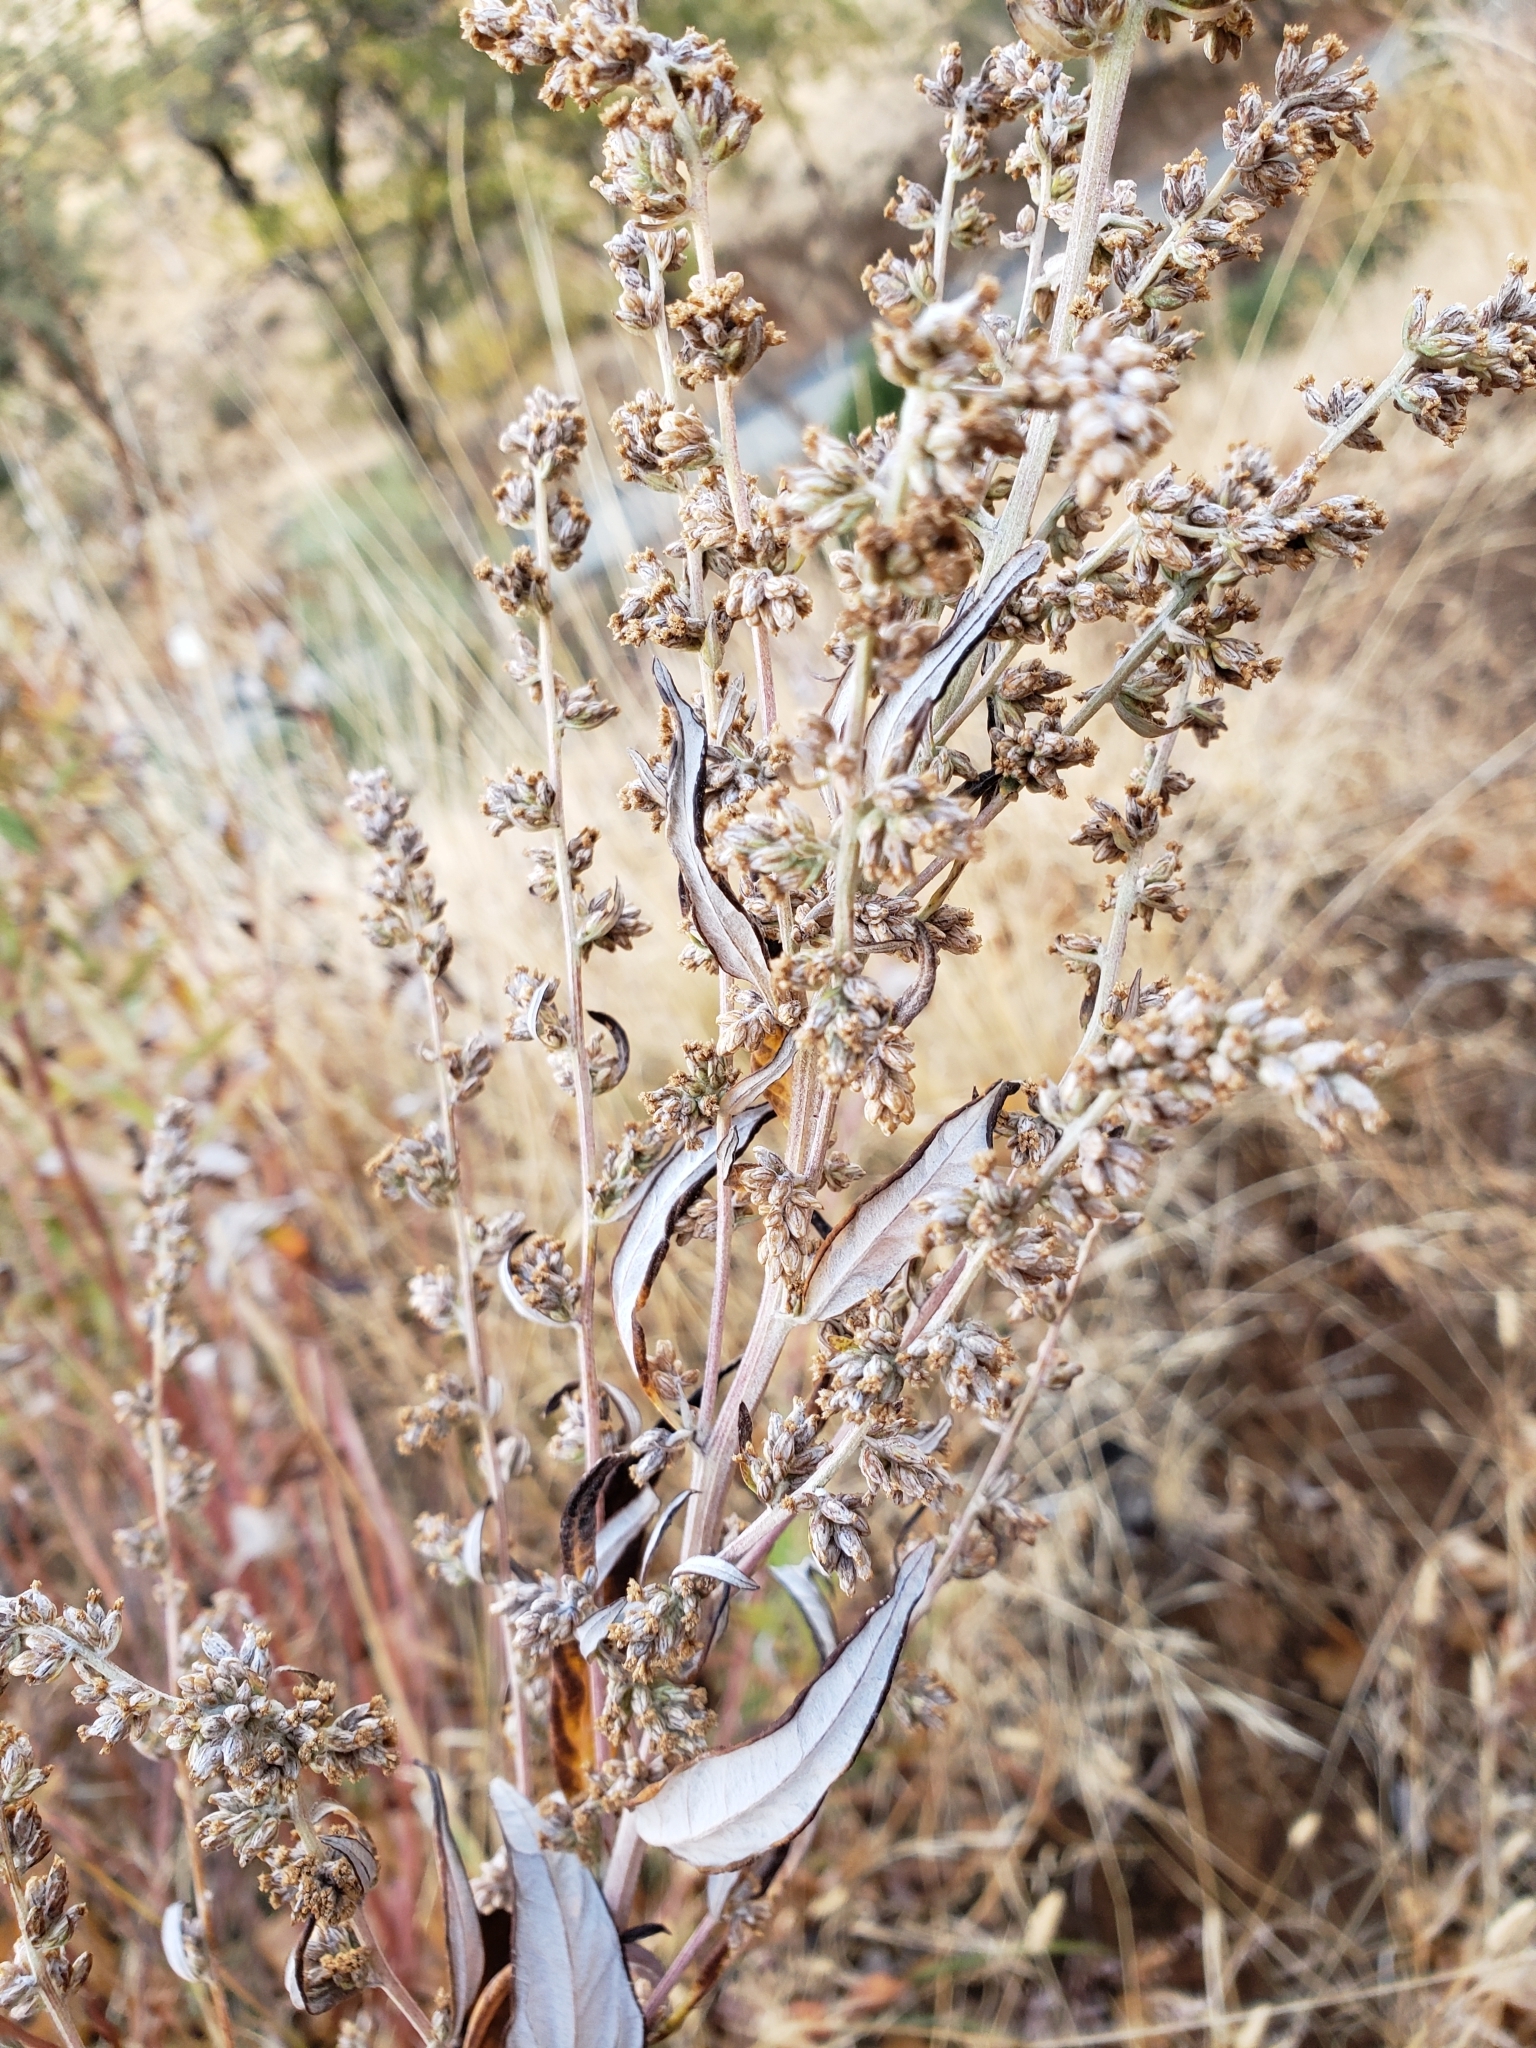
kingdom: Plantae
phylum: Tracheophyta
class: Magnoliopsida
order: Asterales
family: Asteraceae
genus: Artemisia
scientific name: Artemisia douglasiana
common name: Northwest mugwort
